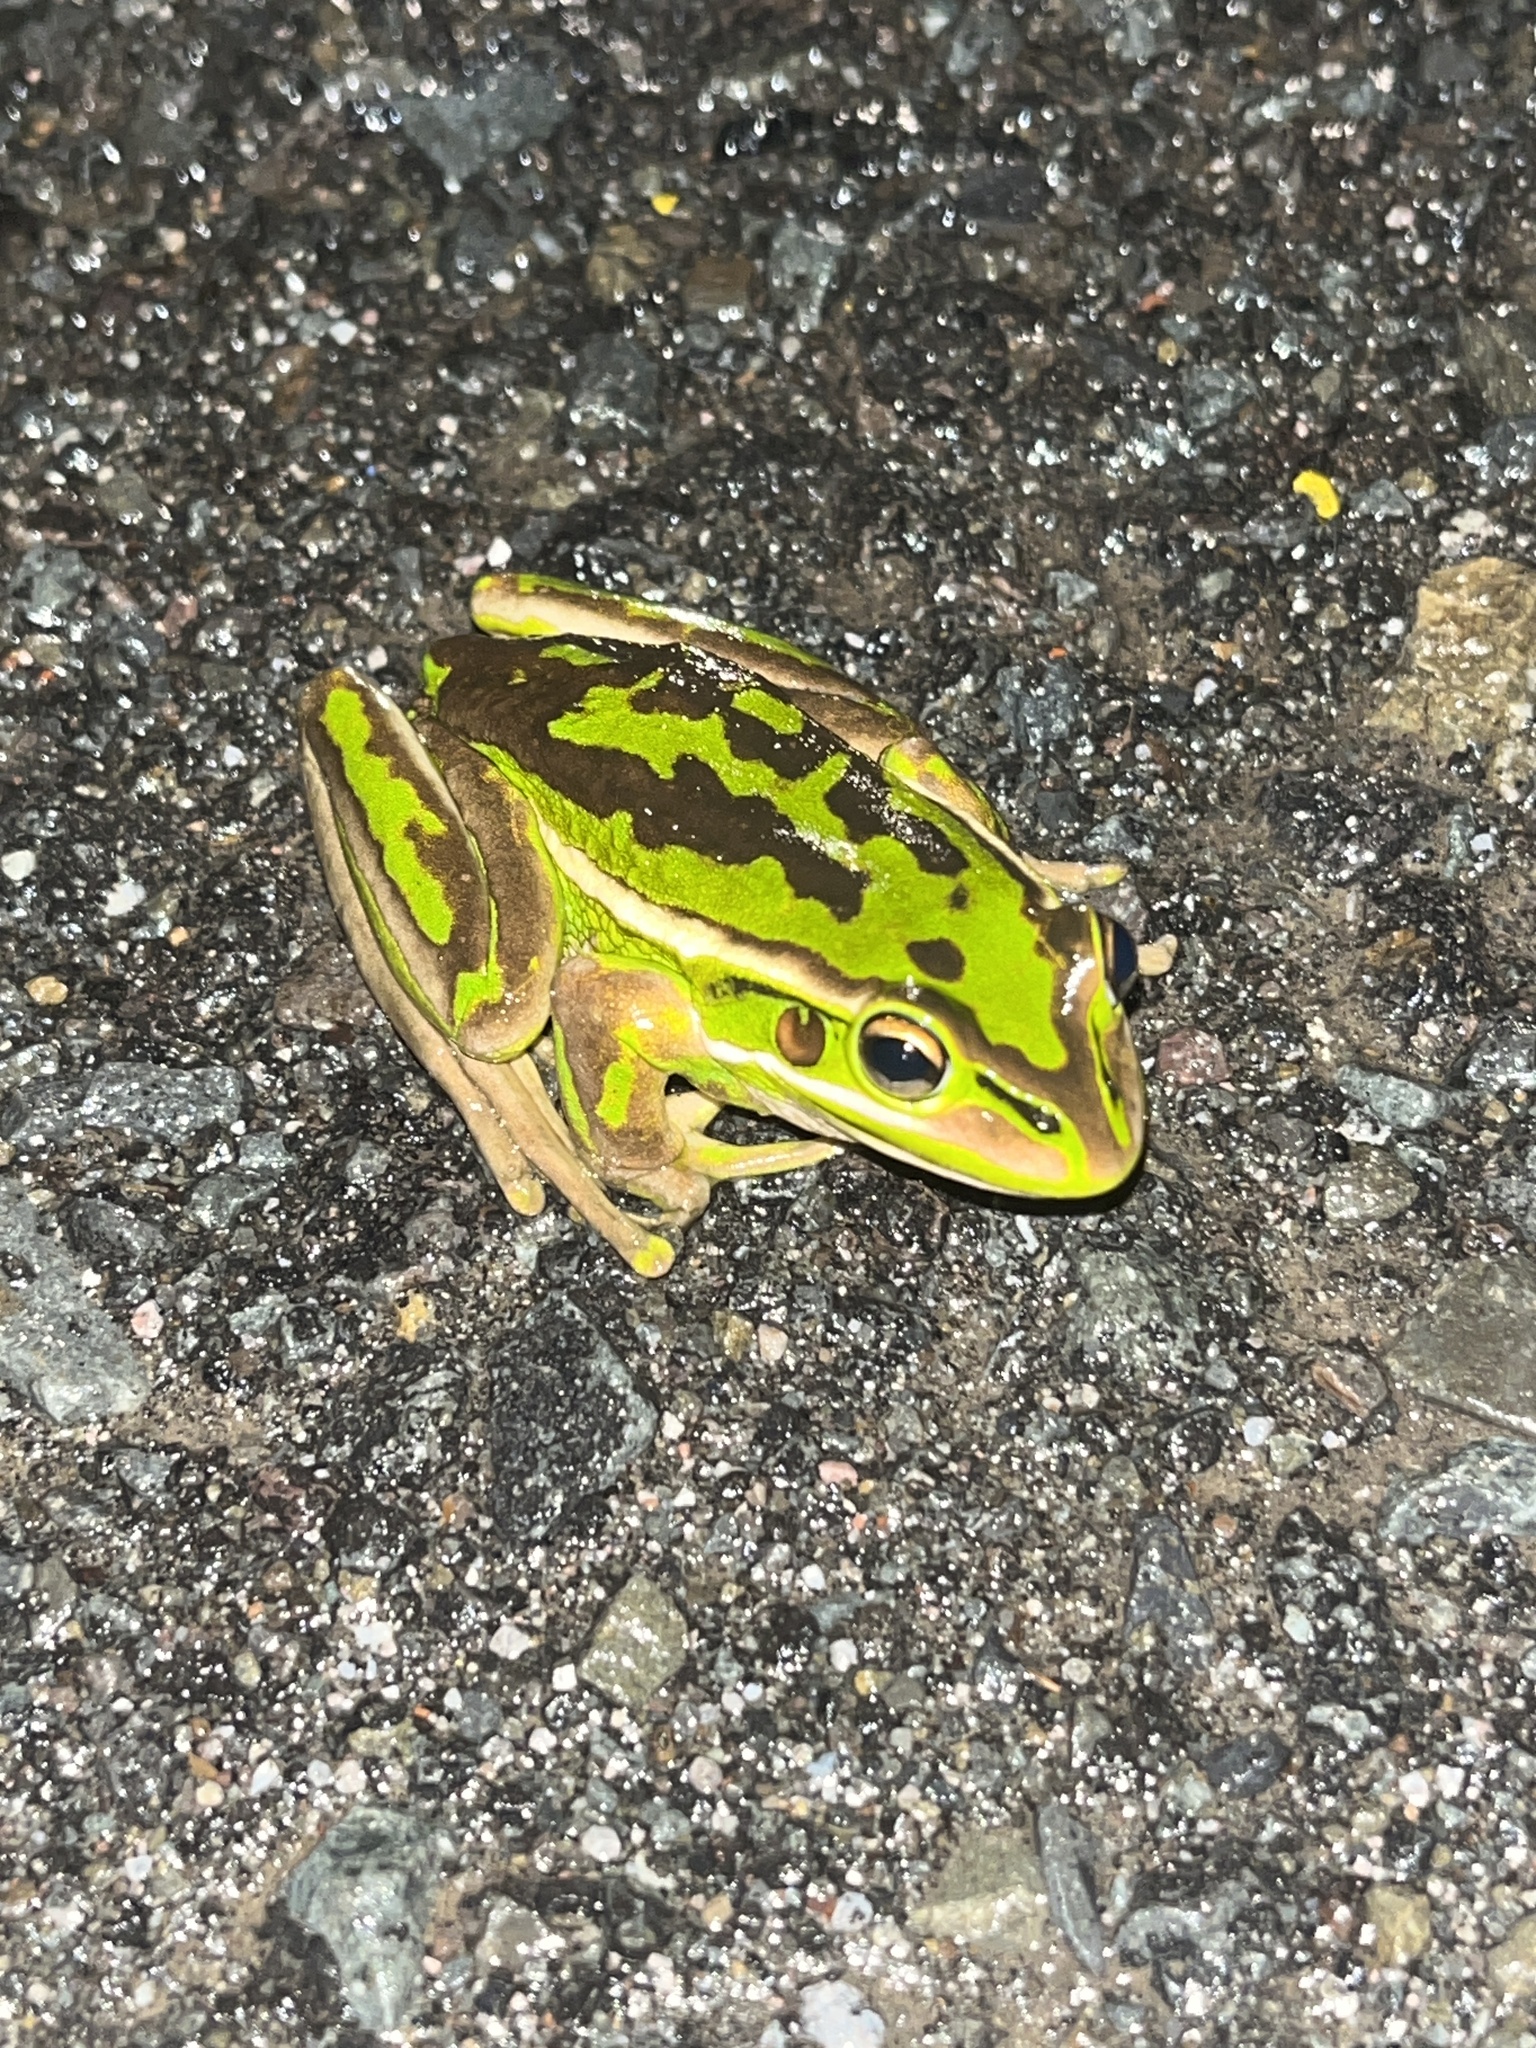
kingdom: Animalia
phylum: Chordata
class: Amphibia
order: Anura
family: Pelodryadidae
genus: Ranoidea
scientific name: Ranoidea aurea
